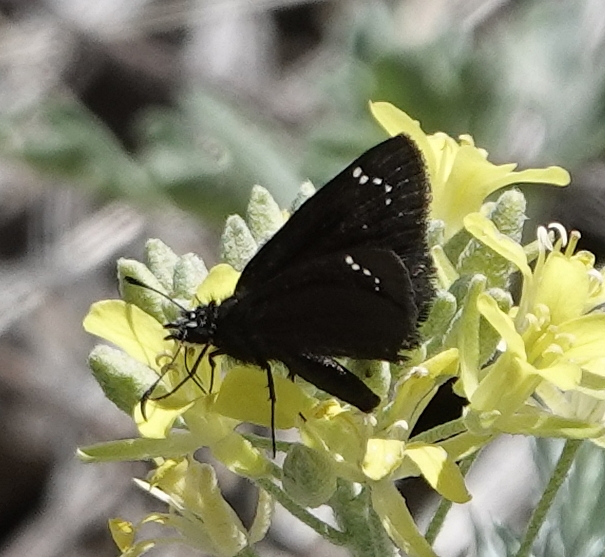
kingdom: Animalia
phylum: Arthropoda
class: Insecta
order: Lepidoptera
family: Hesperiidae
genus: Pholisora
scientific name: Pholisora catullus
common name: Common sootywing
